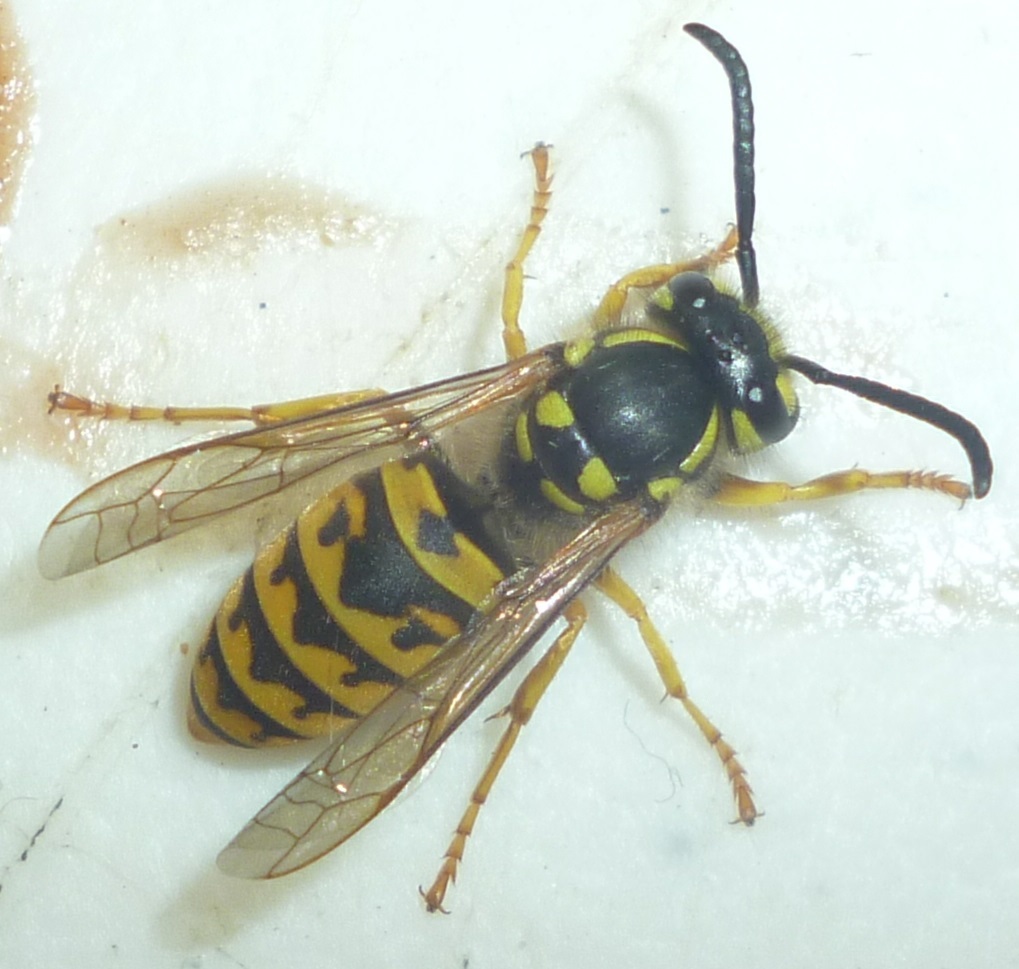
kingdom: Animalia
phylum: Arthropoda
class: Insecta
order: Hymenoptera
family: Vespidae
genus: Vespula
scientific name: Vespula germanica
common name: German wasp
